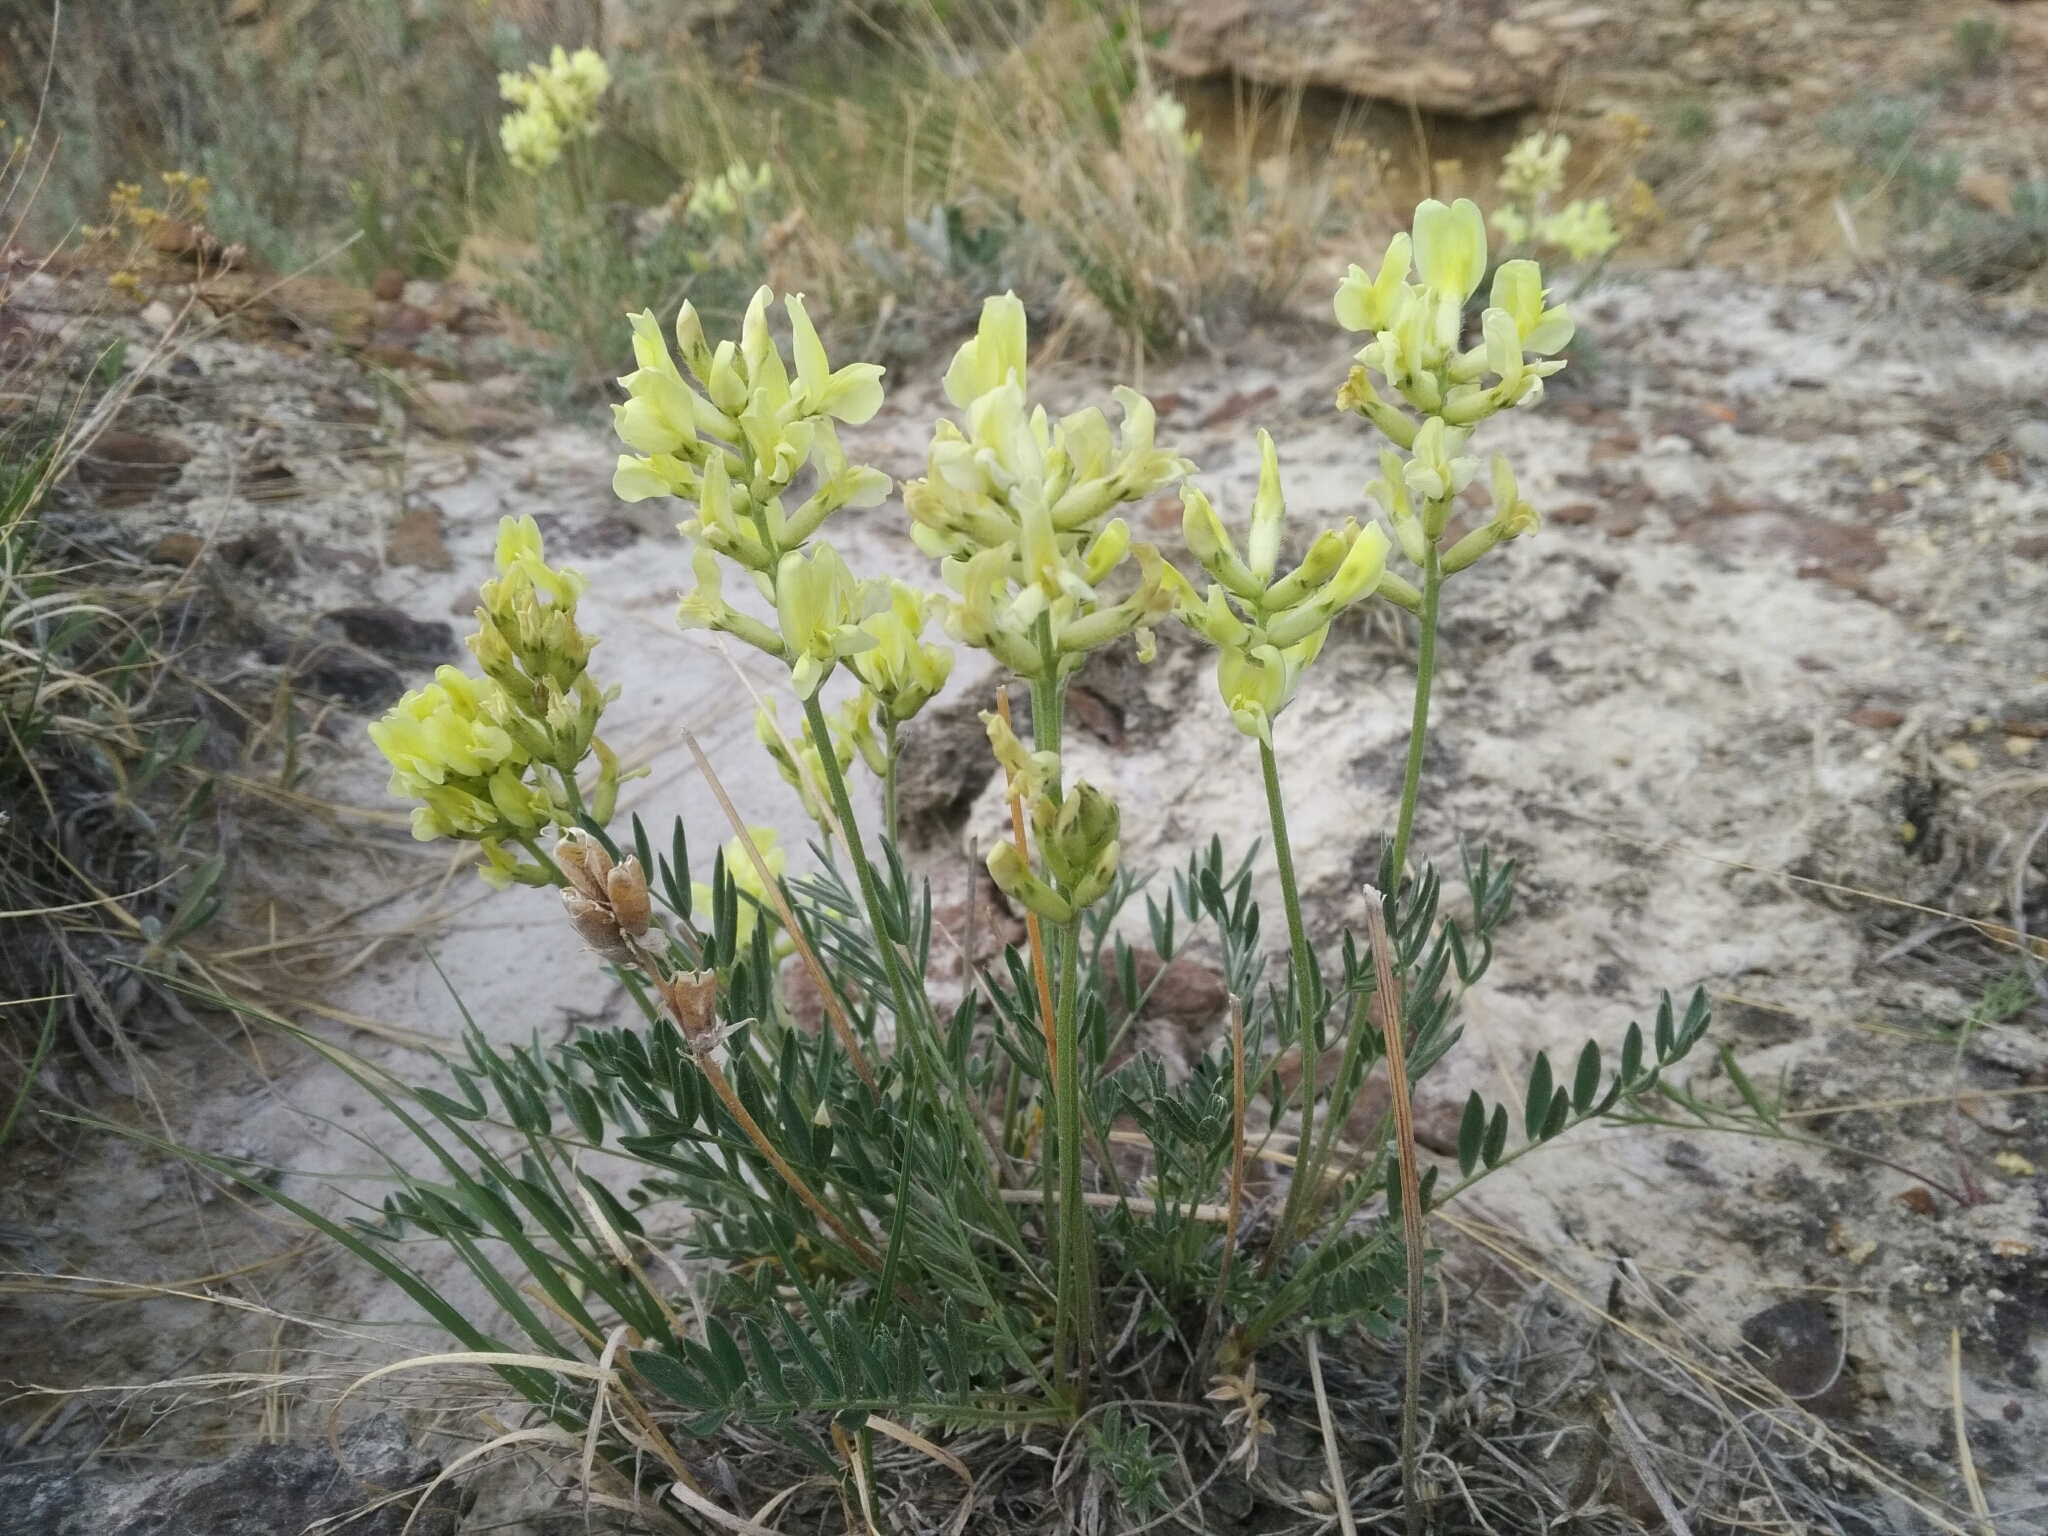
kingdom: Plantae
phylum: Tracheophyta
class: Magnoliopsida
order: Fabales
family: Fabaceae
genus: Oxytropis
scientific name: Oxytropis campestris
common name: Field locoweed
